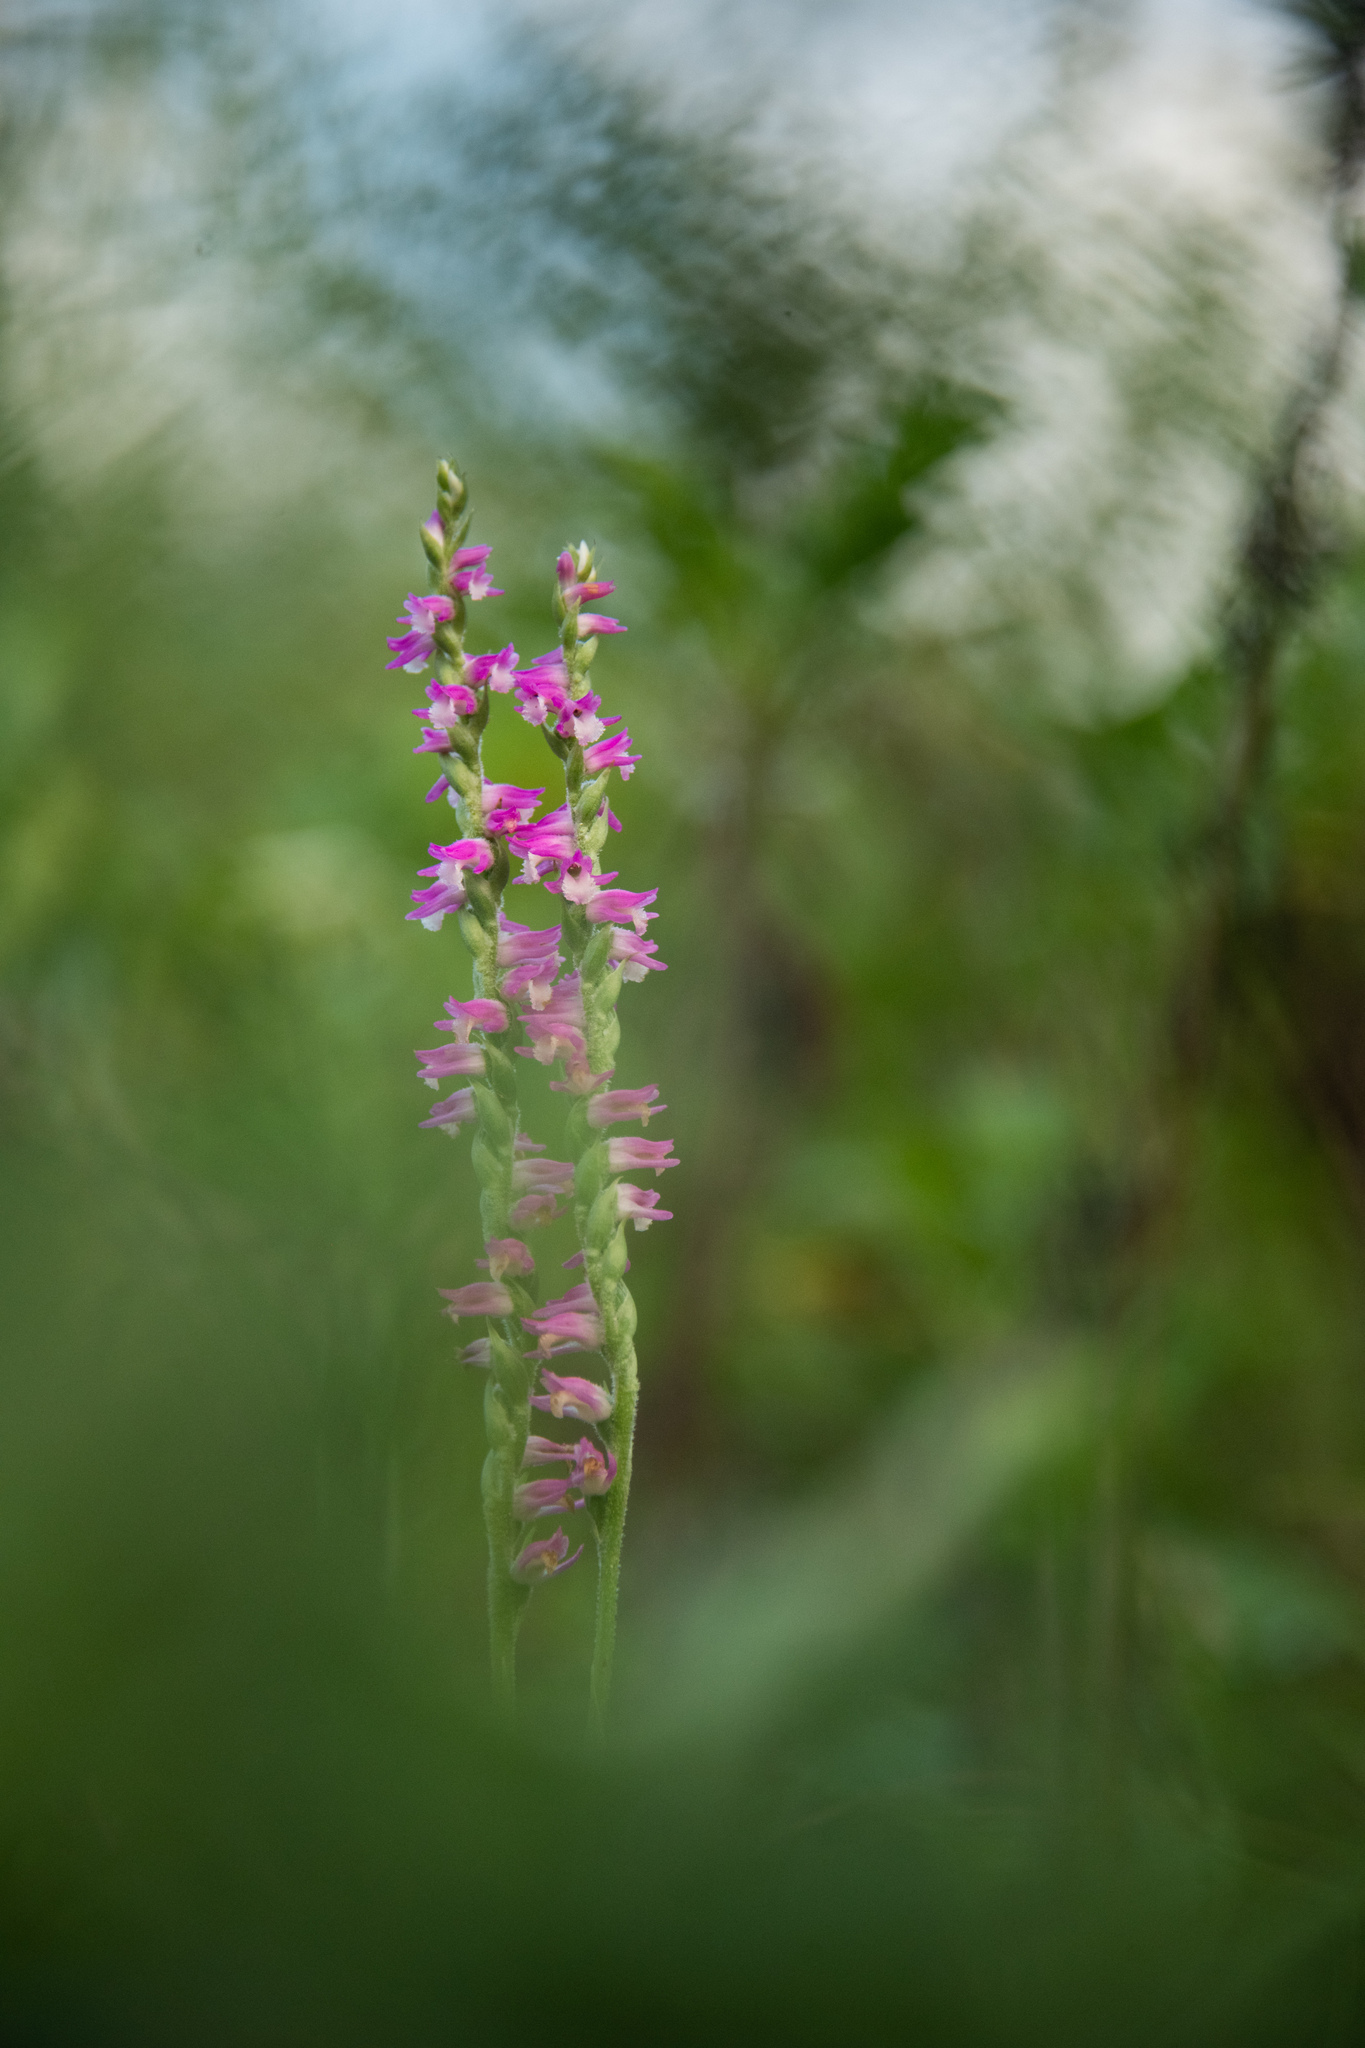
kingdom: Plantae
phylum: Tracheophyta
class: Liliopsida
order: Asparagales
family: Orchidaceae
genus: Spiranthes
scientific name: Spiranthes australis
